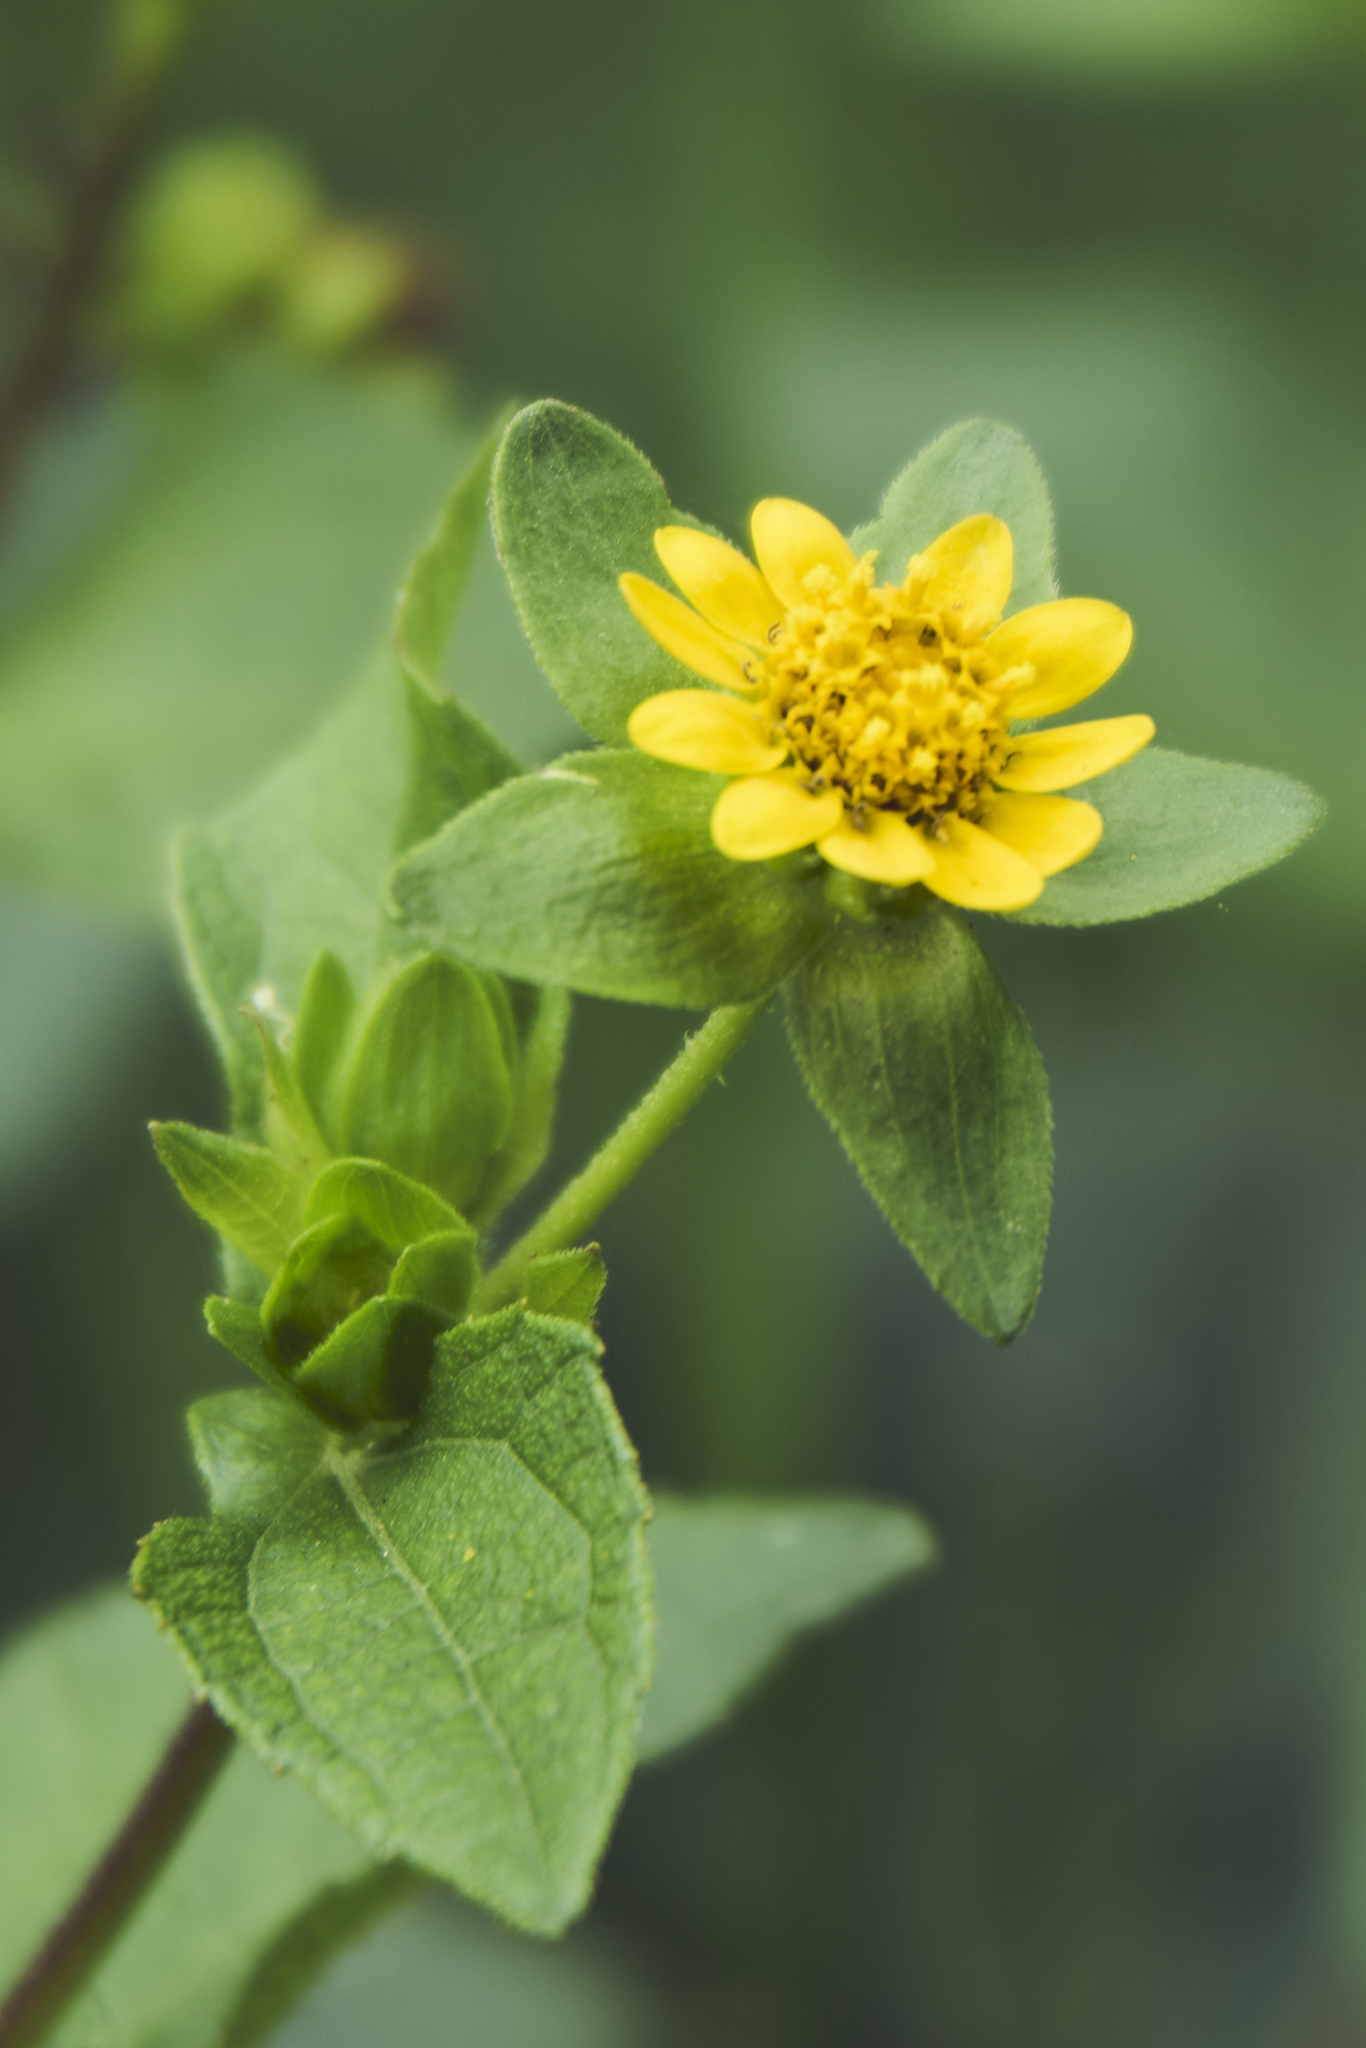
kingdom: Plantae
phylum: Tracheophyta
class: Magnoliopsida
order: Asterales
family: Asteraceae
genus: Melampodium
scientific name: Melampodium perfoliatum
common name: Perfoliate blackfoot
